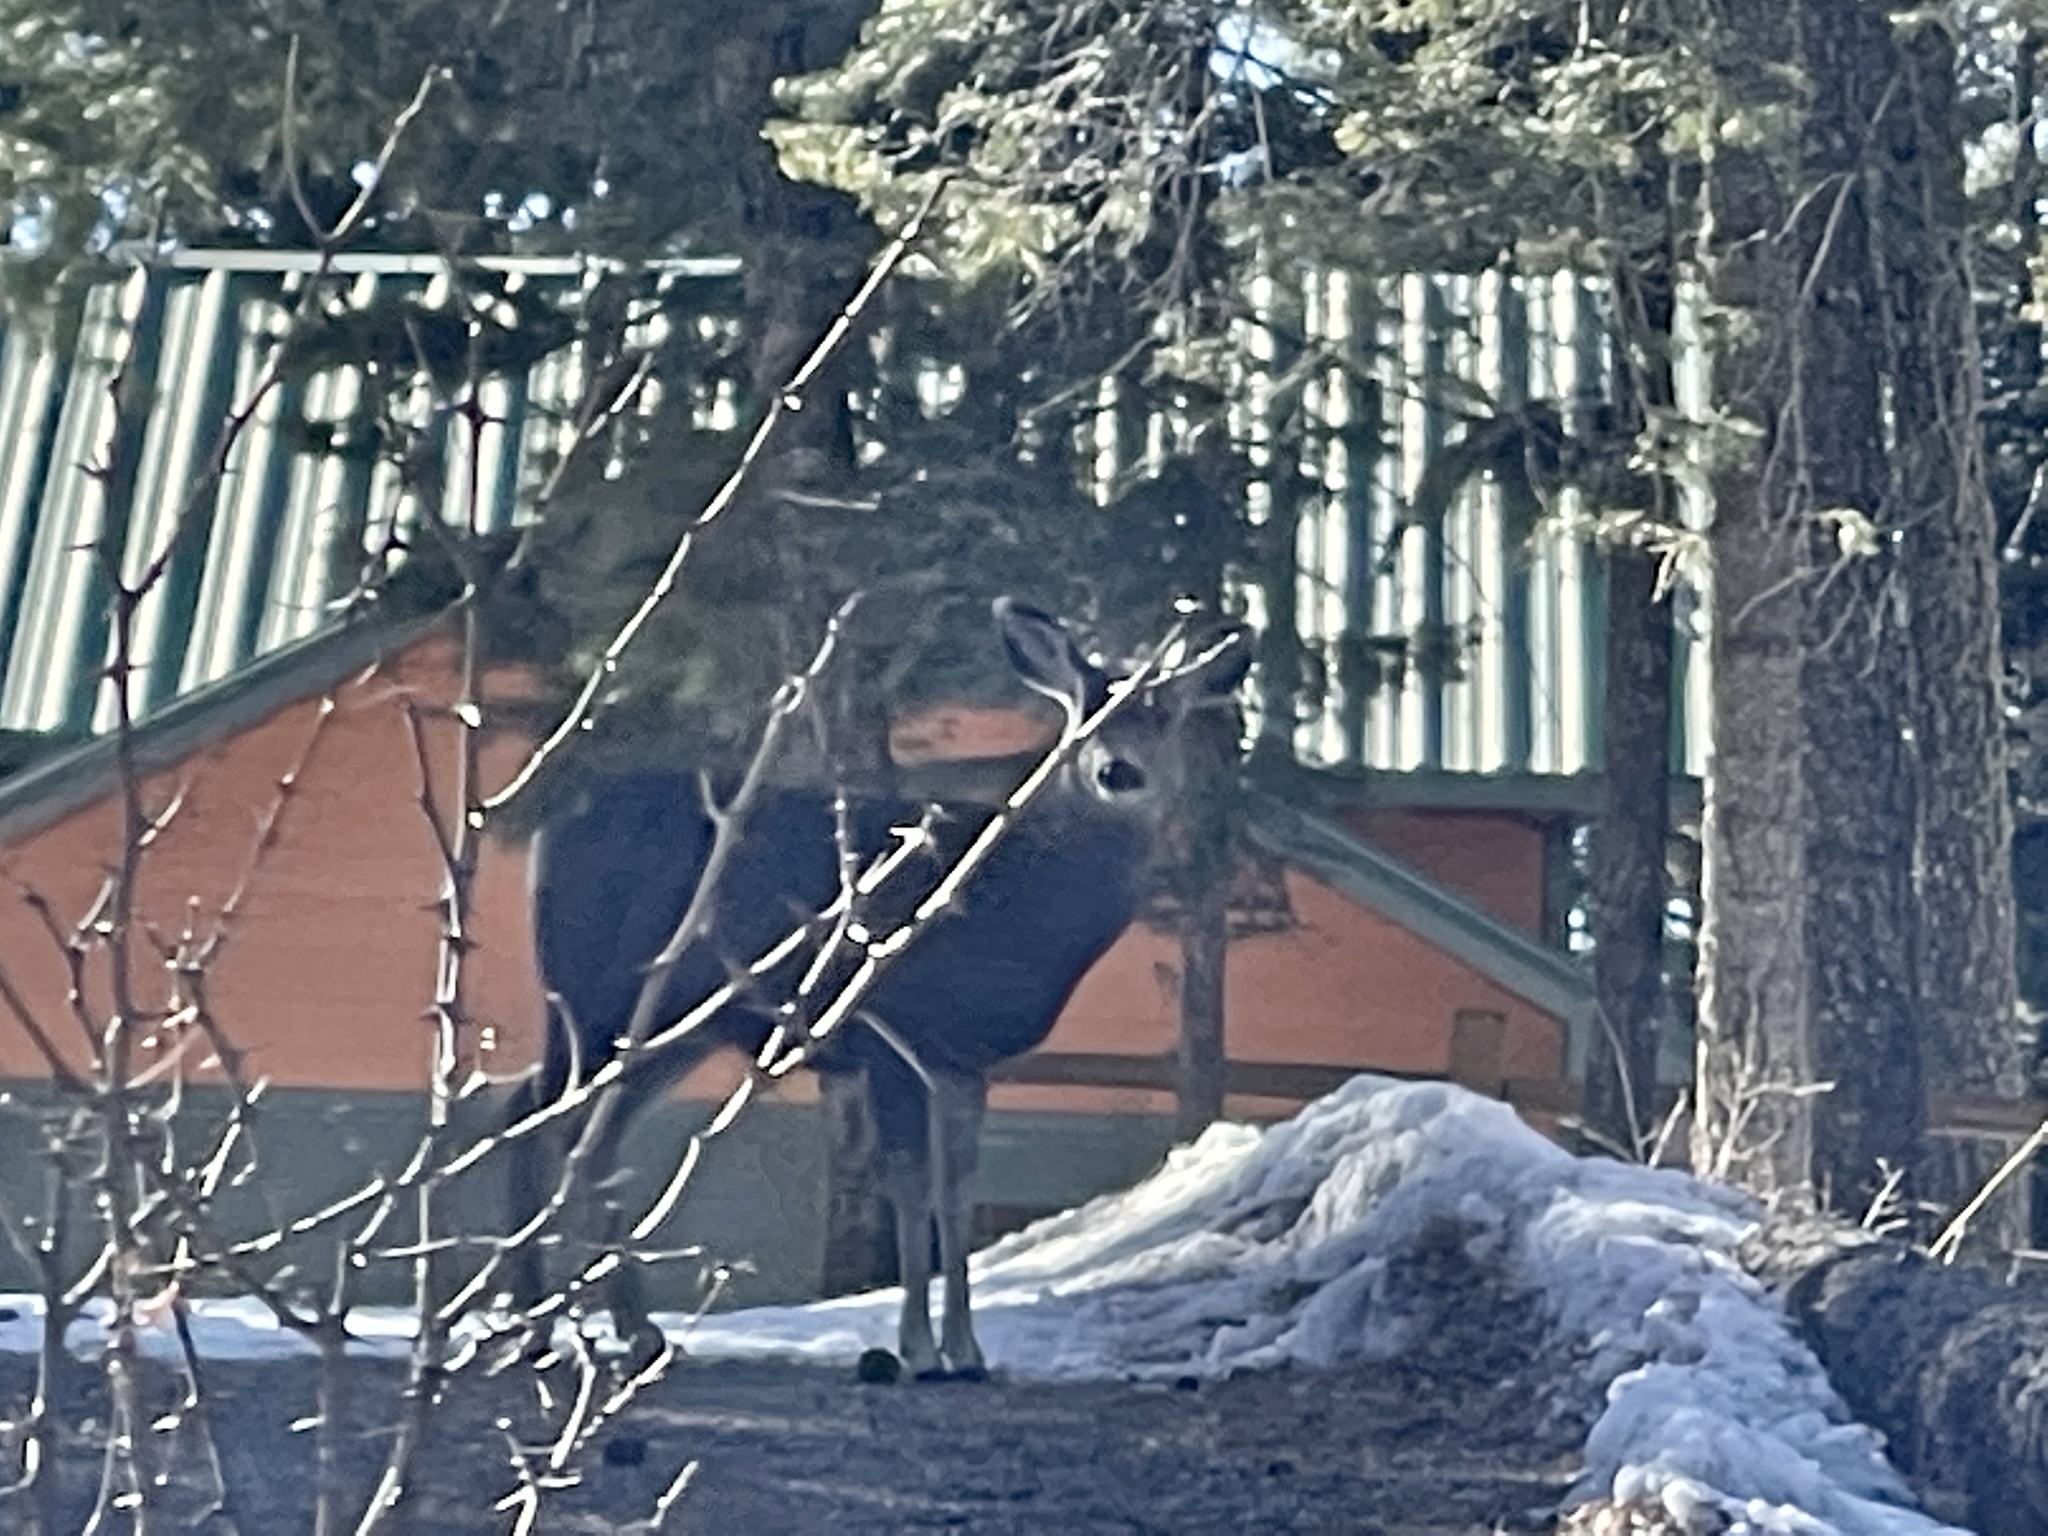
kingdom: Animalia
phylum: Chordata
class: Mammalia
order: Artiodactyla
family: Cervidae
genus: Odocoileus
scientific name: Odocoileus hemionus
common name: Mule deer
